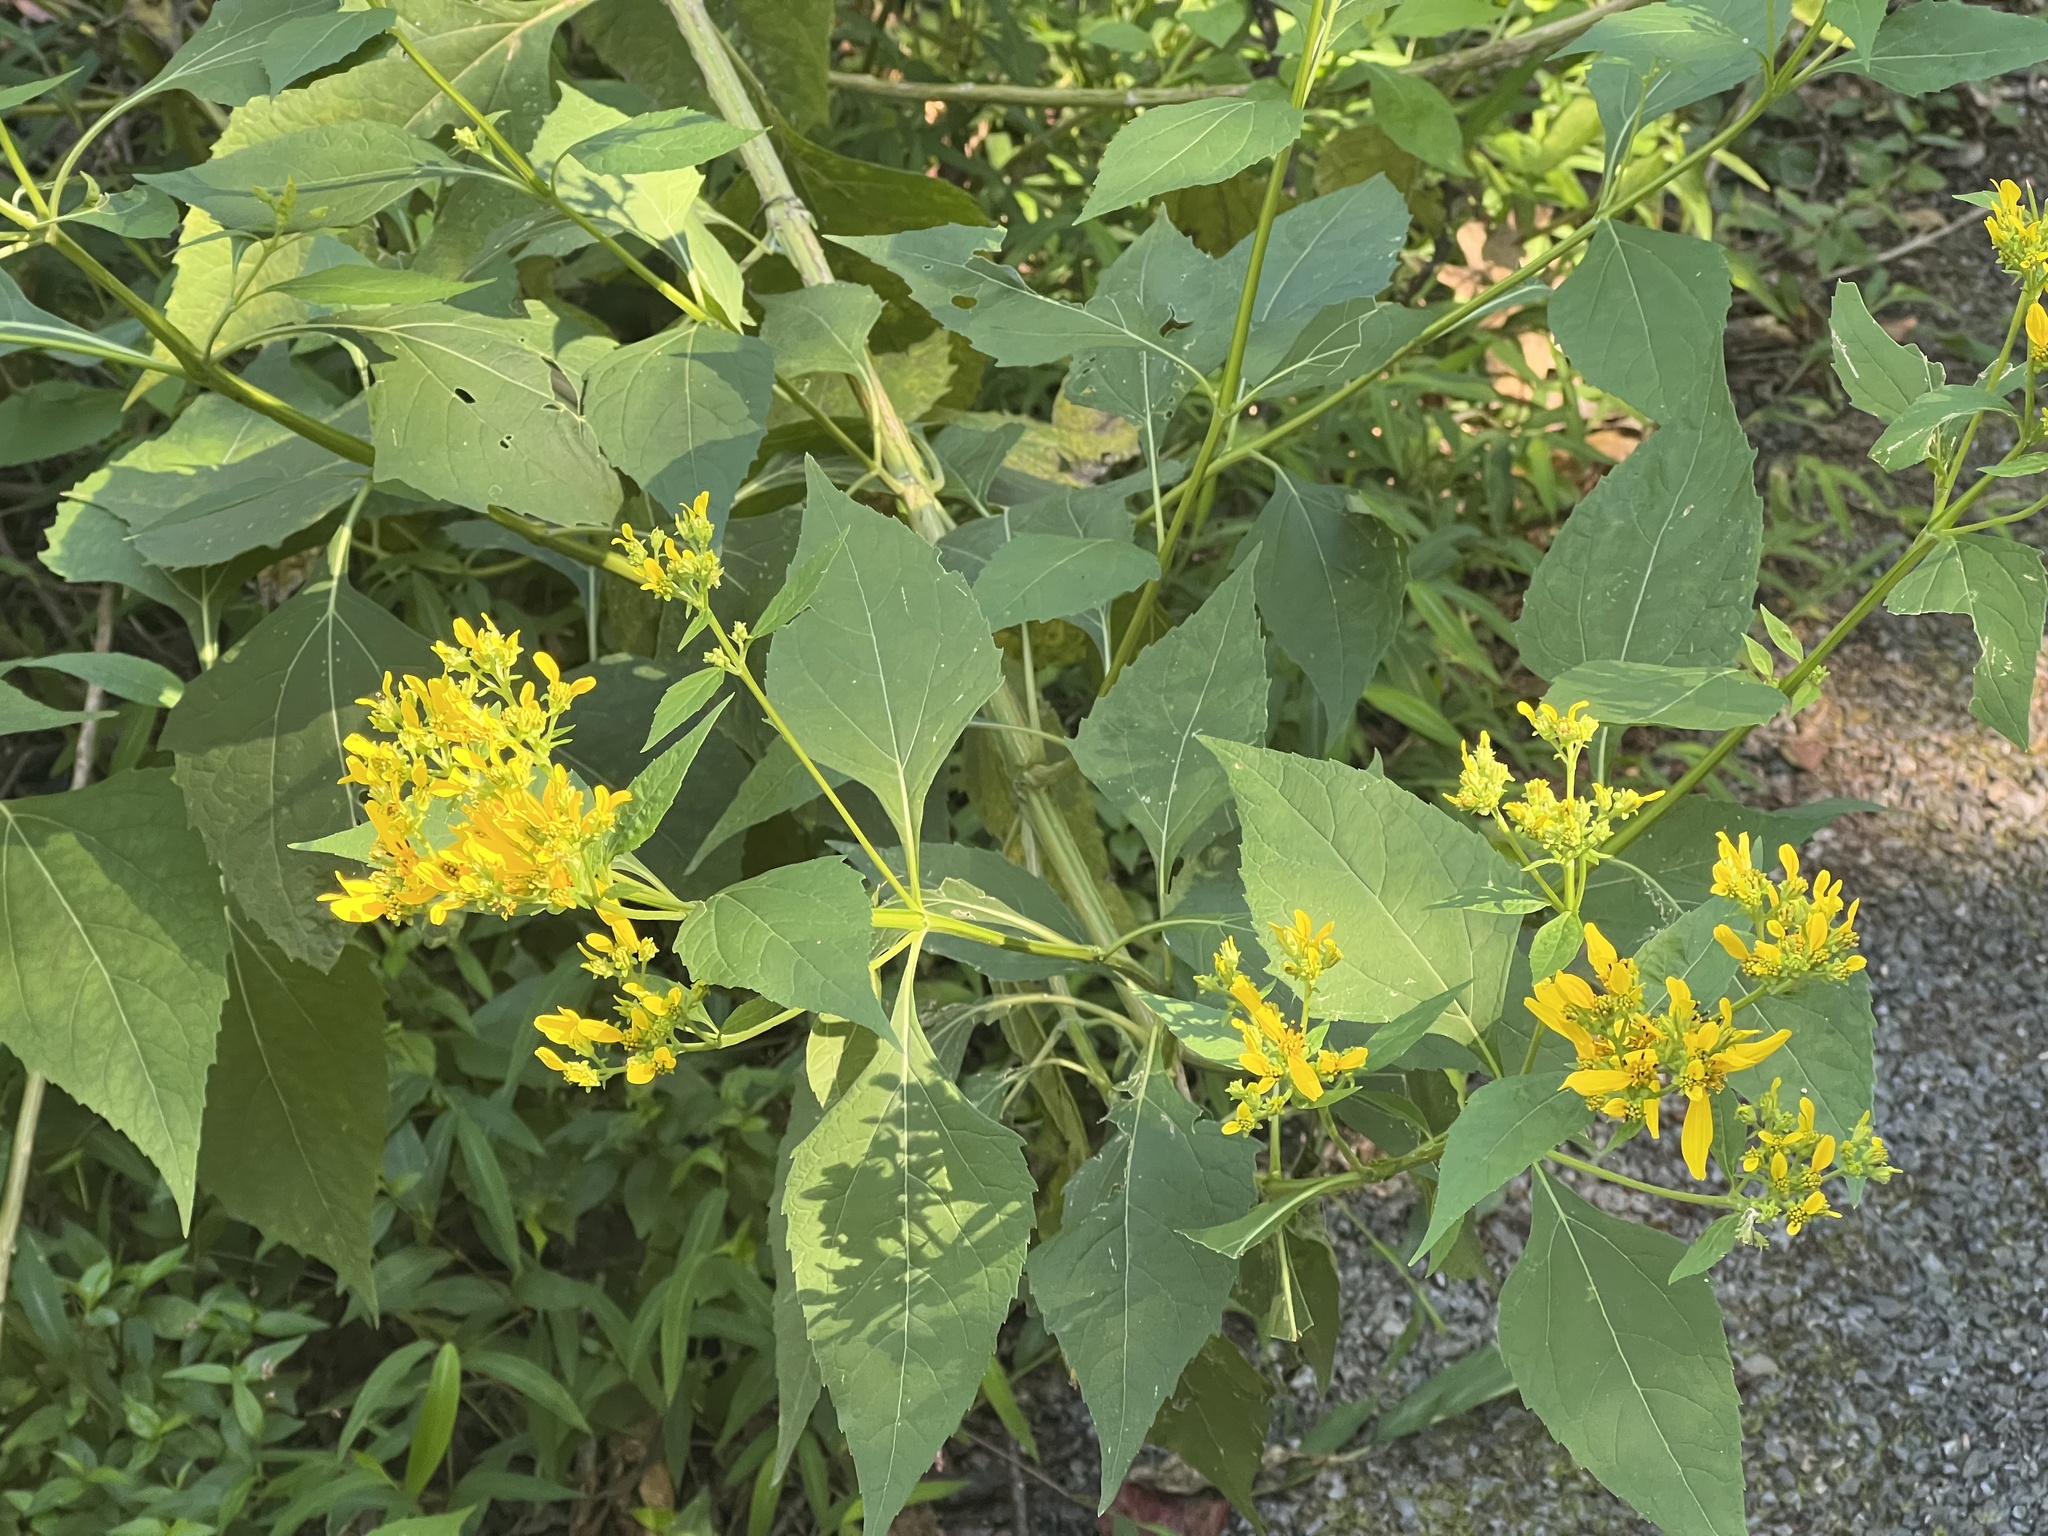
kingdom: Plantae
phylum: Tracheophyta
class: Magnoliopsida
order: Asterales
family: Asteraceae
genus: Verbesina
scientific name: Verbesina occidentalis
